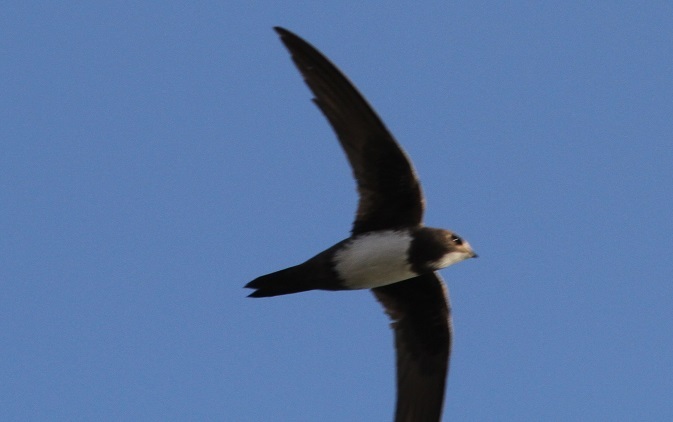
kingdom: Animalia
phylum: Chordata
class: Aves
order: Apodiformes
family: Apodidae
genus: Tachymarptis
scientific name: Tachymarptis melba
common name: Alpine swift
